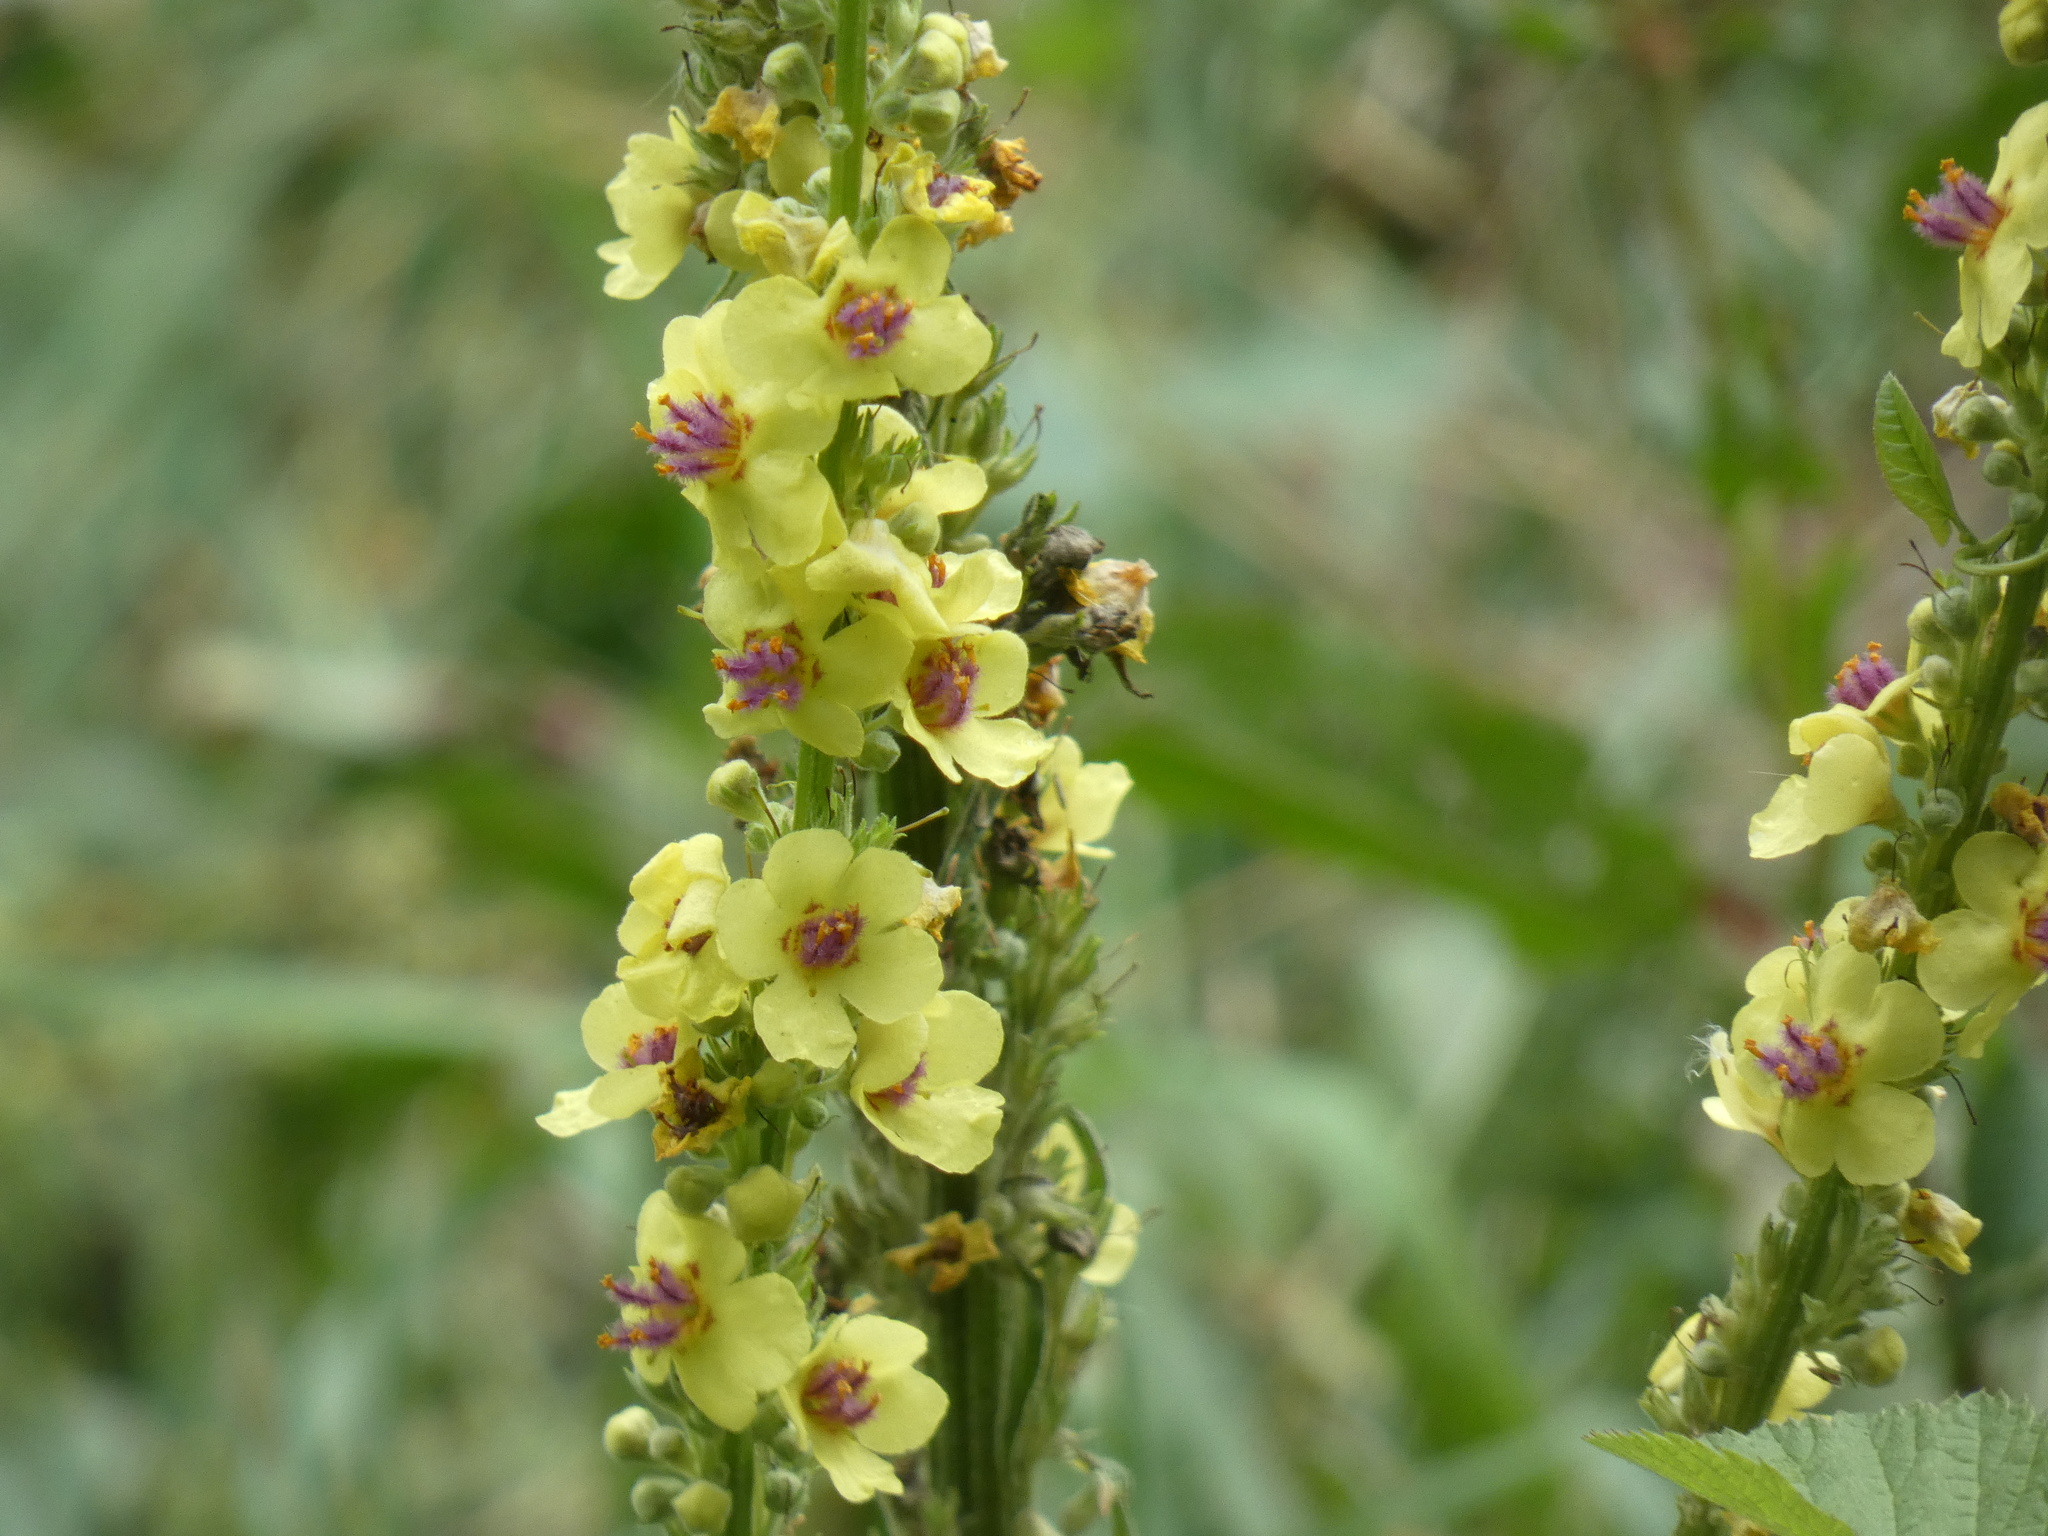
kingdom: Plantae
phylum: Tracheophyta
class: Magnoliopsida
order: Lamiales
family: Scrophulariaceae
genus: Verbascum
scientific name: Verbascum nigrum
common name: Dark mullein
